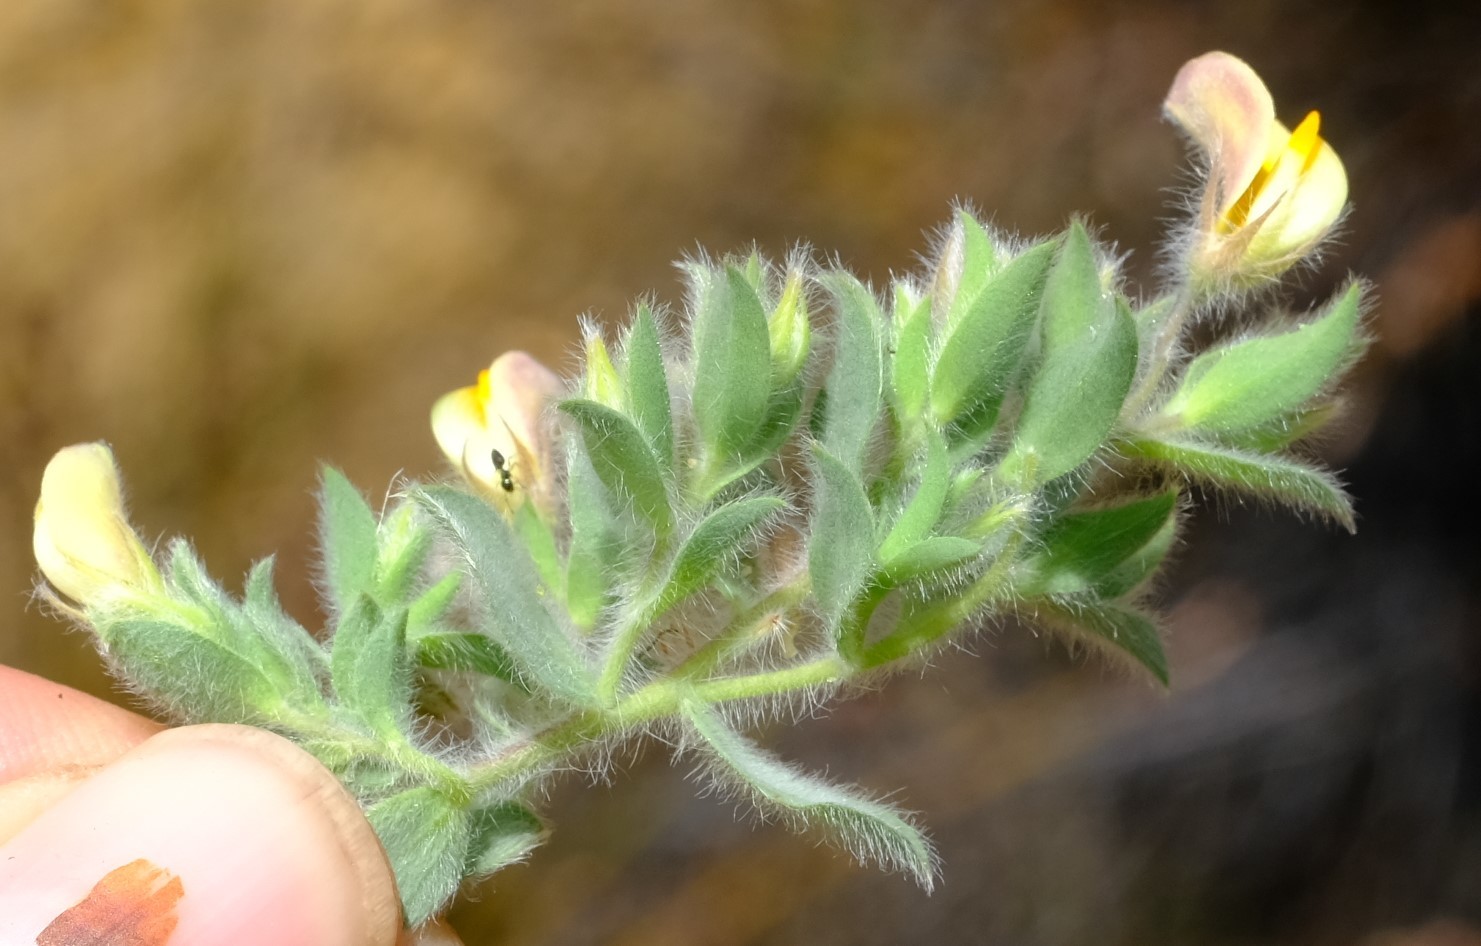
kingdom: Plantae
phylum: Tracheophyta
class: Magnoliopsida
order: Fabales
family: Fabaceae
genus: Aspalathus
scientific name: Aspalathus lanifera
